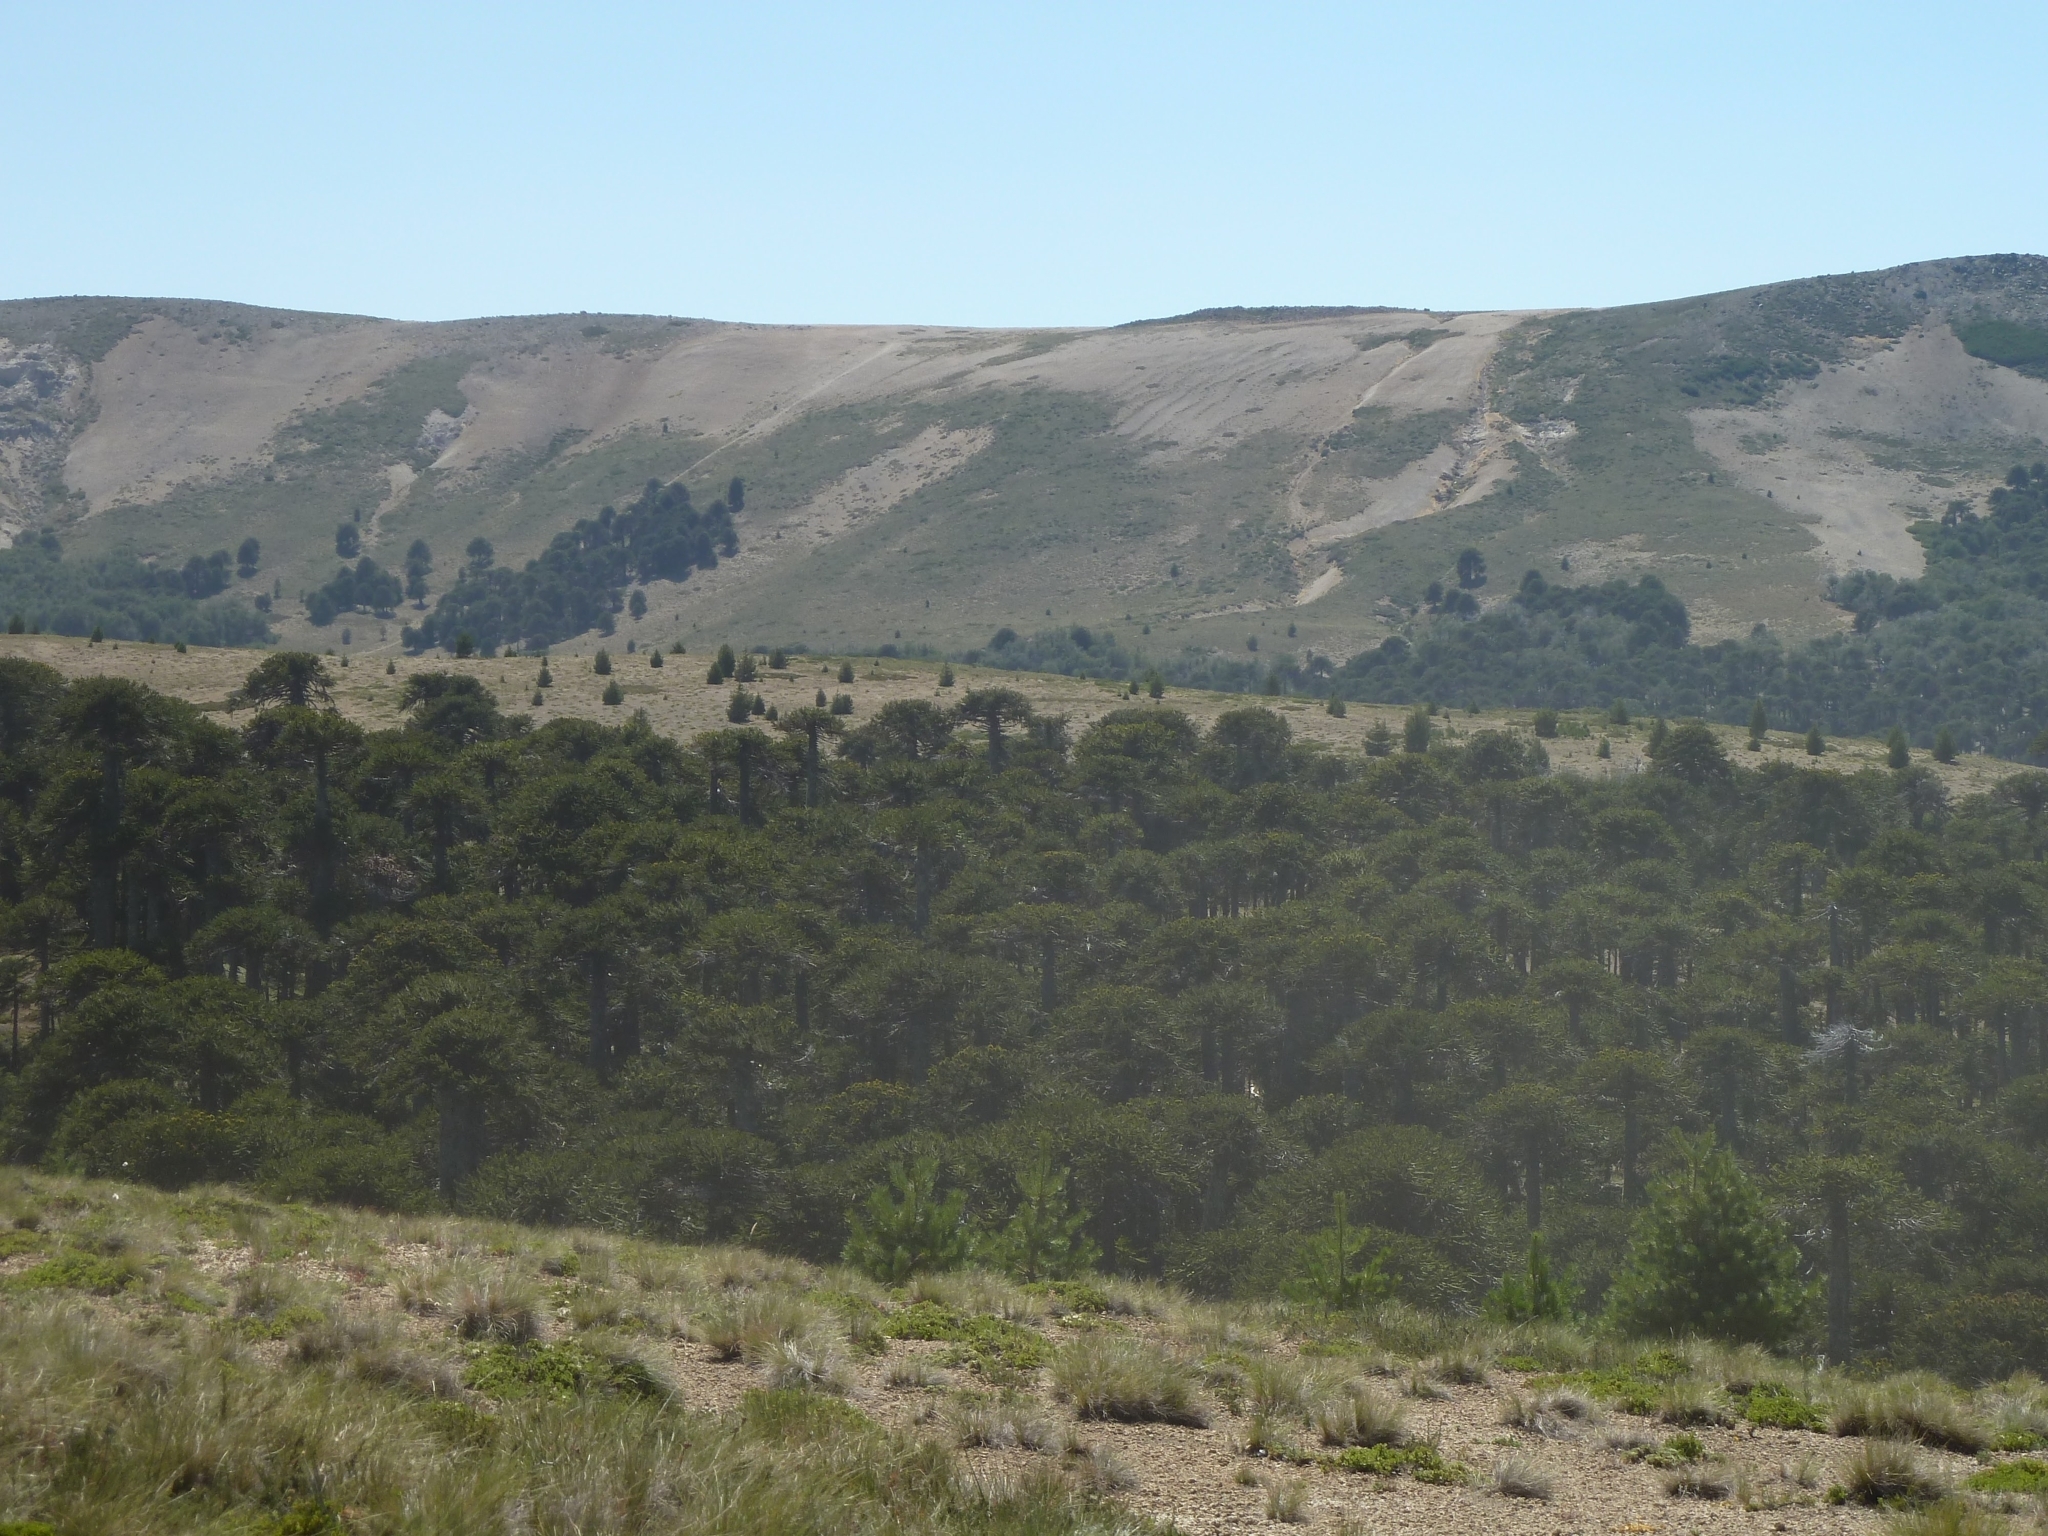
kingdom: Plantae
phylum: Tracheophyta
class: Pinopsida
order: Pinales
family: Araucariaceae
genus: Araucaria
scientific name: Araucaria araucana
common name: Monkey-puzzle
